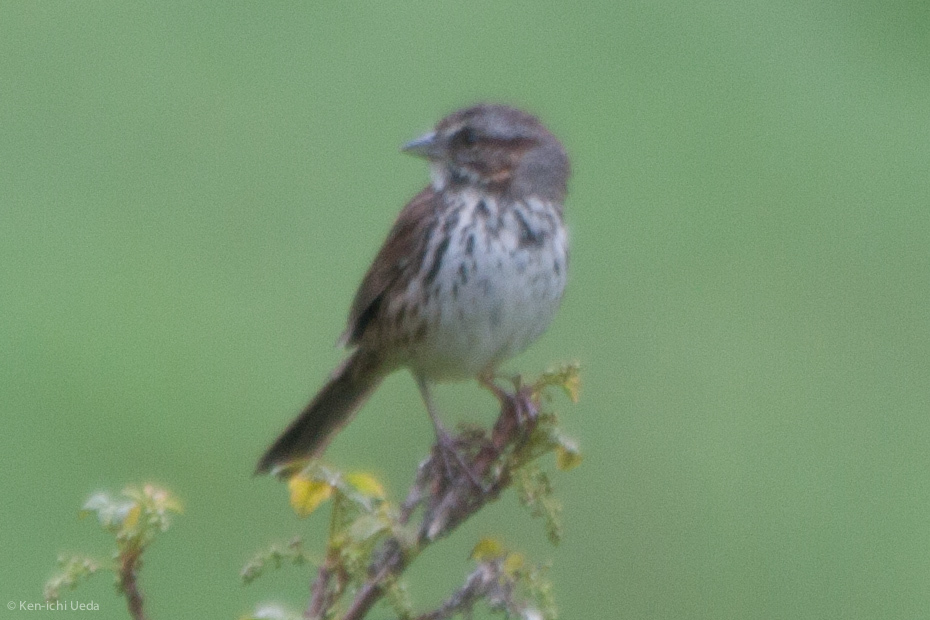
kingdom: Animalia
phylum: Chordata
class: Aves
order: Passeriformes
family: Passerellidae
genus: Melospiza
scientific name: Melospiza melodia
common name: Song sparrow
